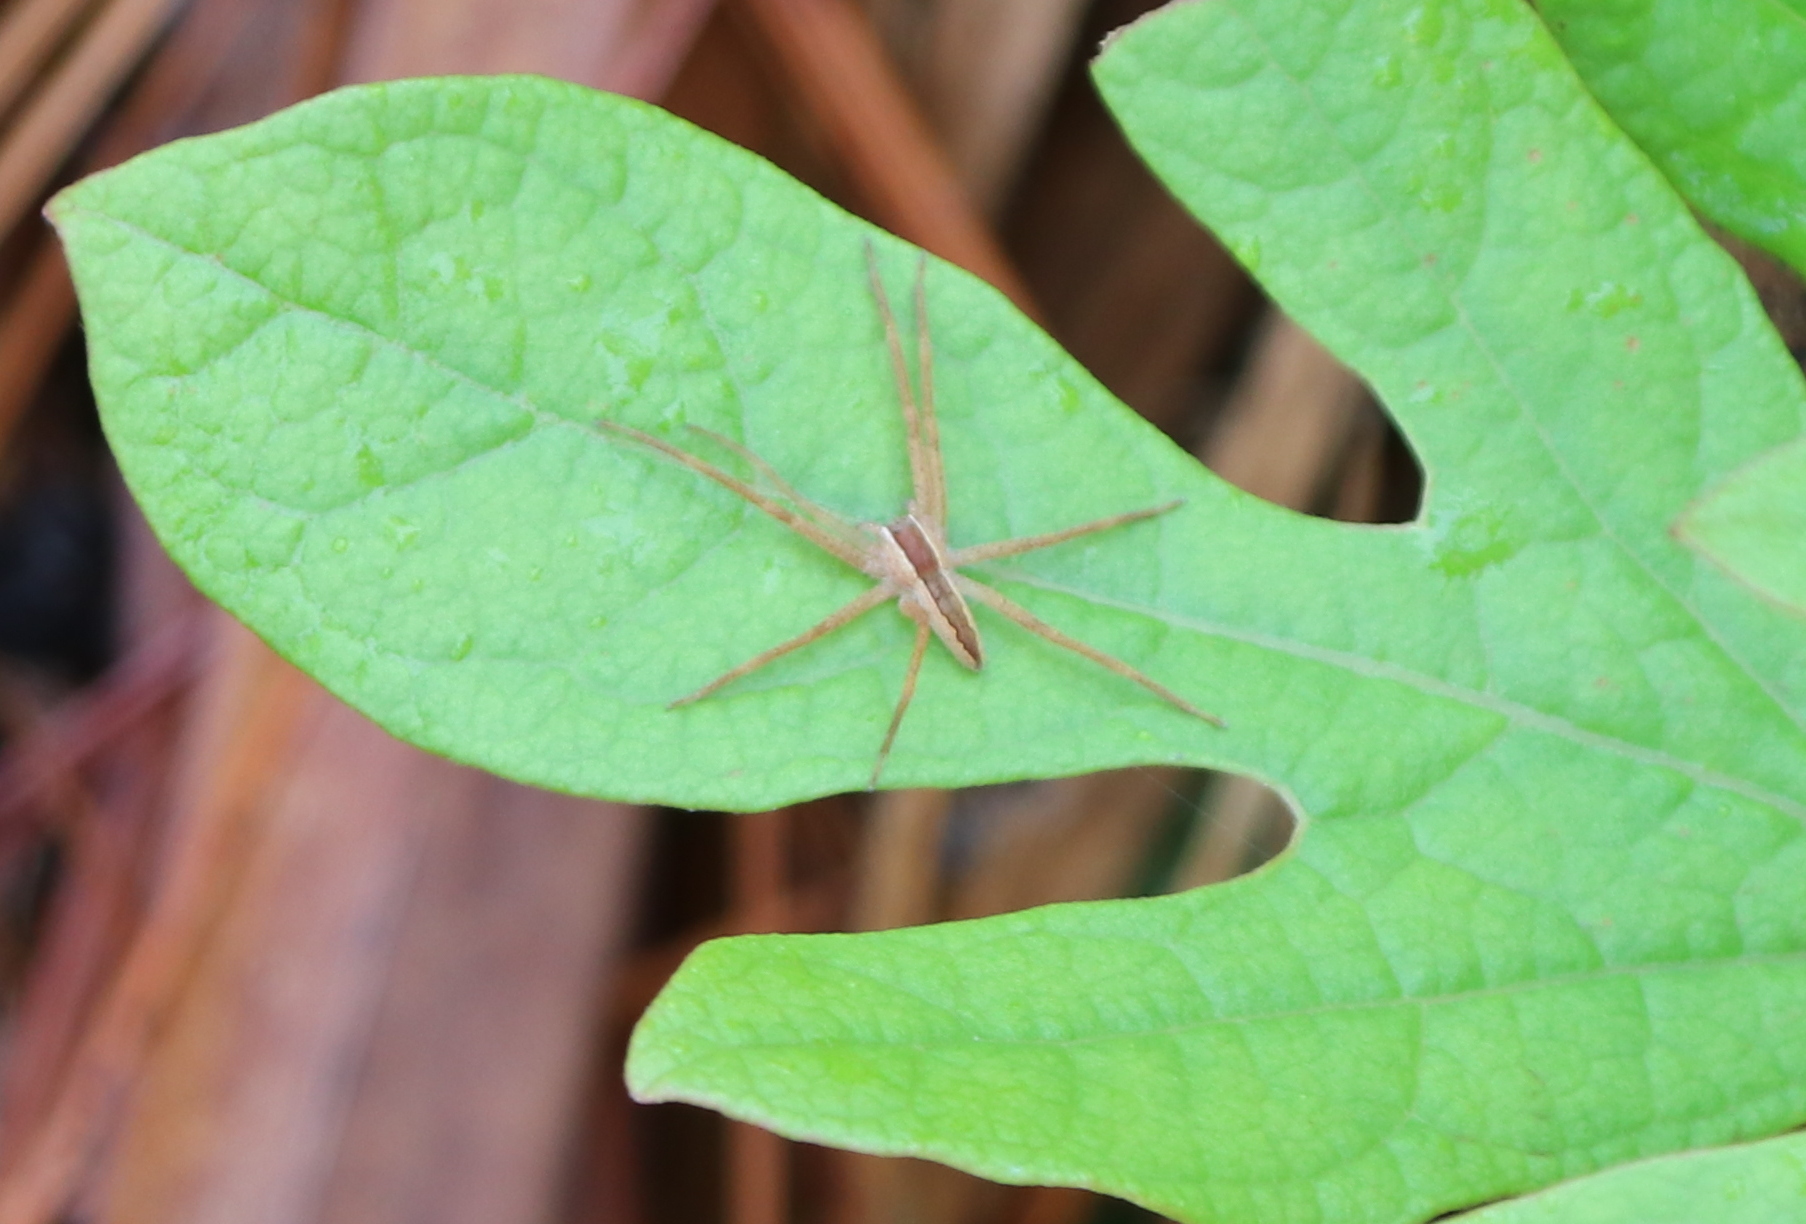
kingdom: Animalia
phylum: Arthropoda
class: Arachnida
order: Araneae
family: Pisauridae
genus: Pisaurina
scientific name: Pisaurina mira
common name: American nursery web spider
